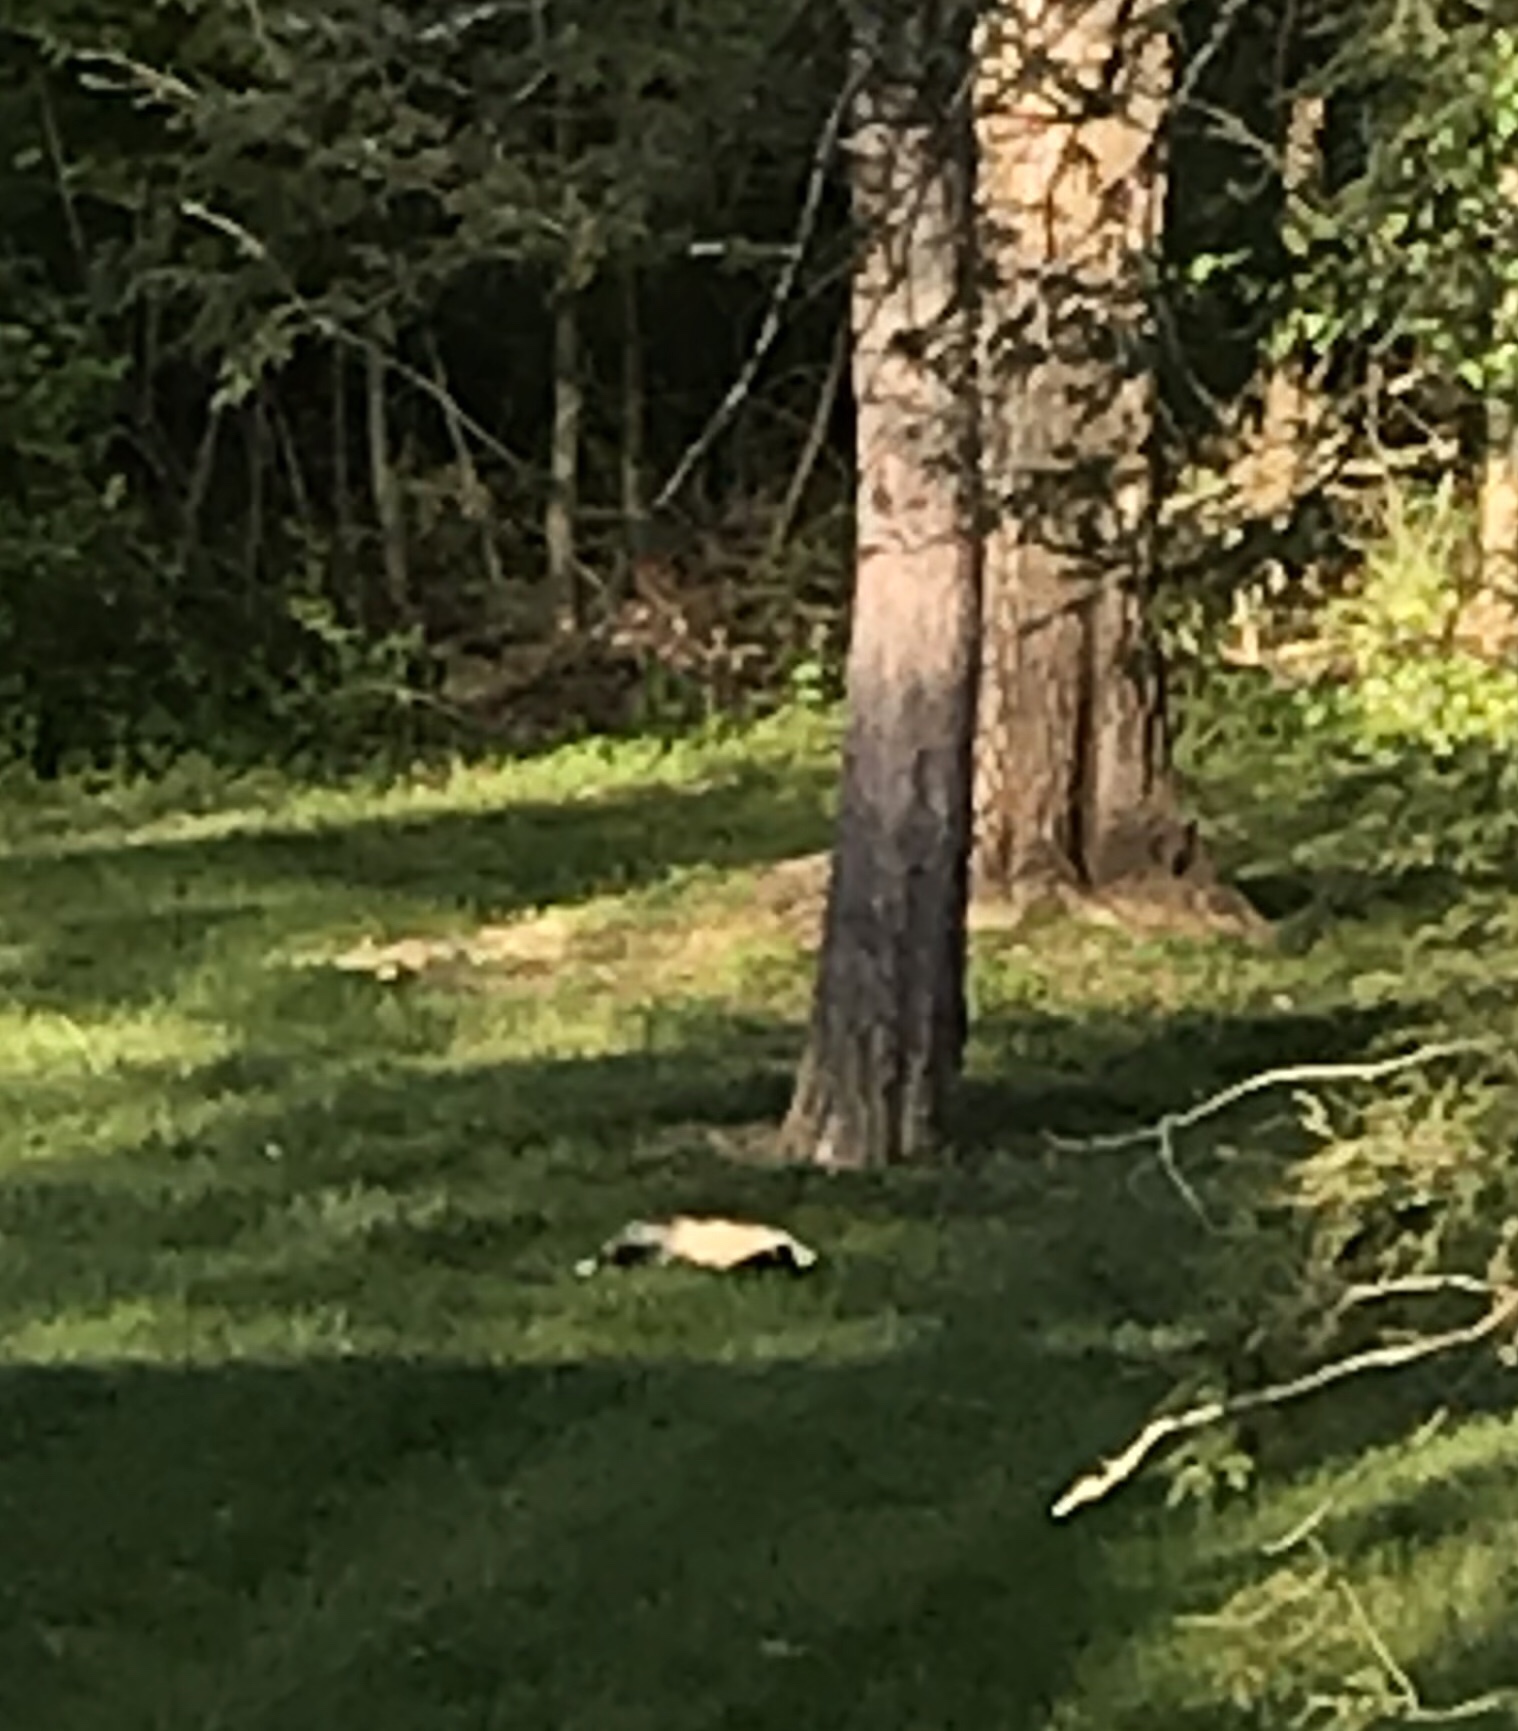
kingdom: Animalia
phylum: Chordata
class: Mammalia
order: Carnivora
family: Mephitidae
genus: Mephitis
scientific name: Mephitis mephitis
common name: Striped skunk
